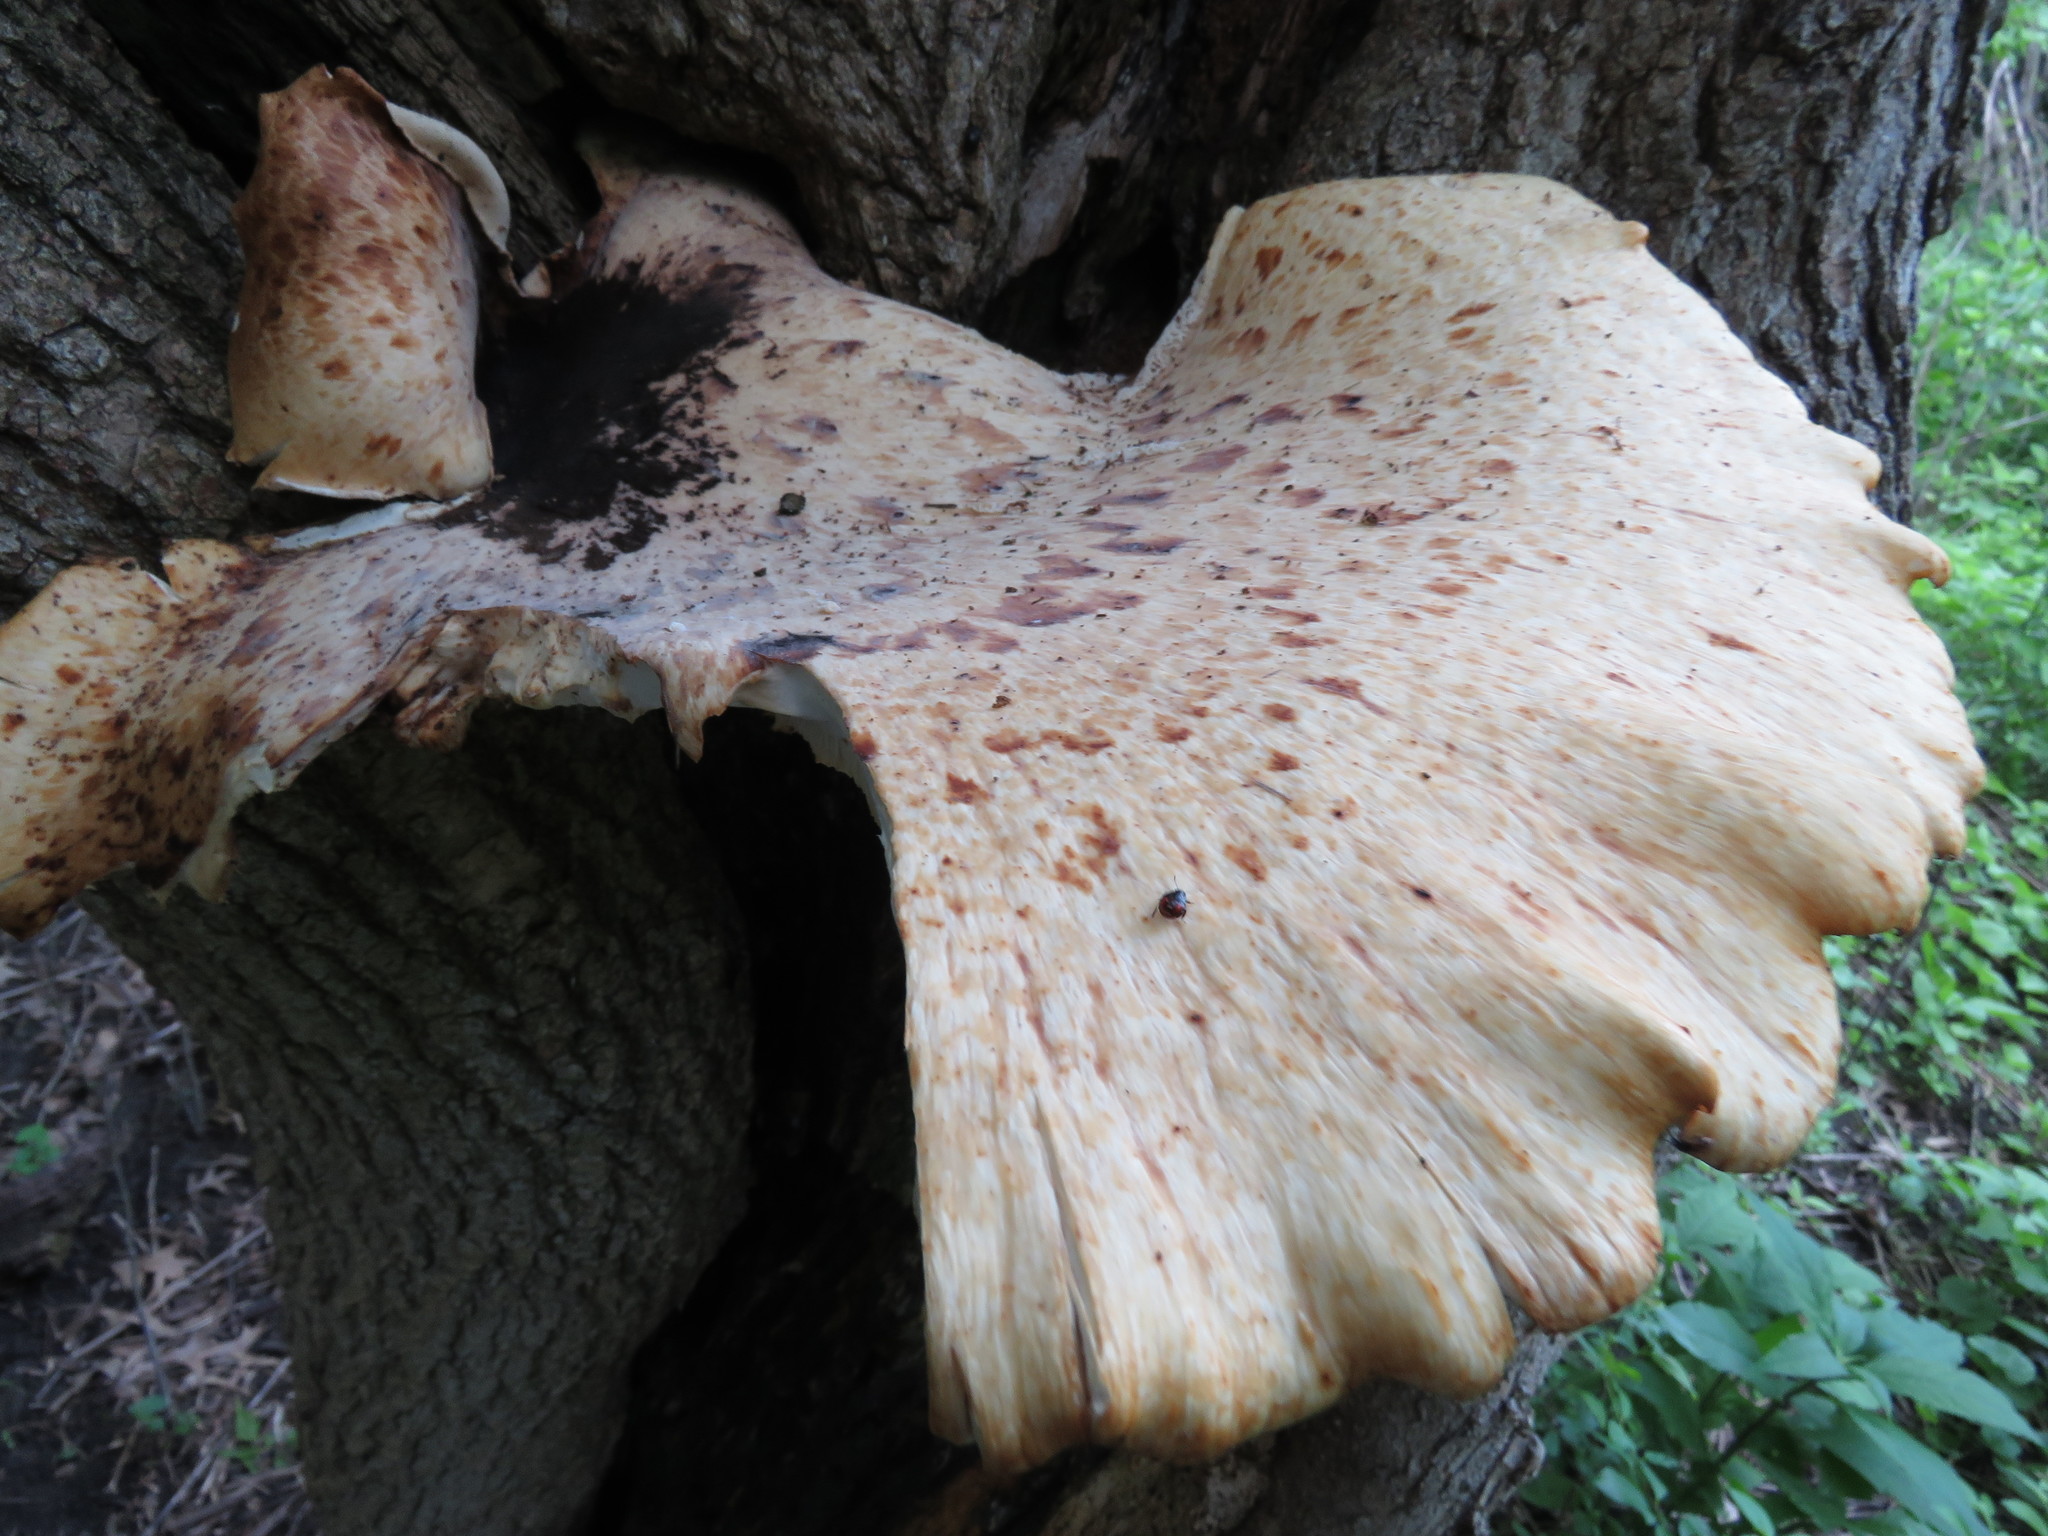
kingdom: Fungi
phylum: Basidiomycota
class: Agaricomycetes
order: Polyporales
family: Polyporaceae
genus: Cerioporus
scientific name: Cerioporus squamosus
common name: Dryad's saddle
